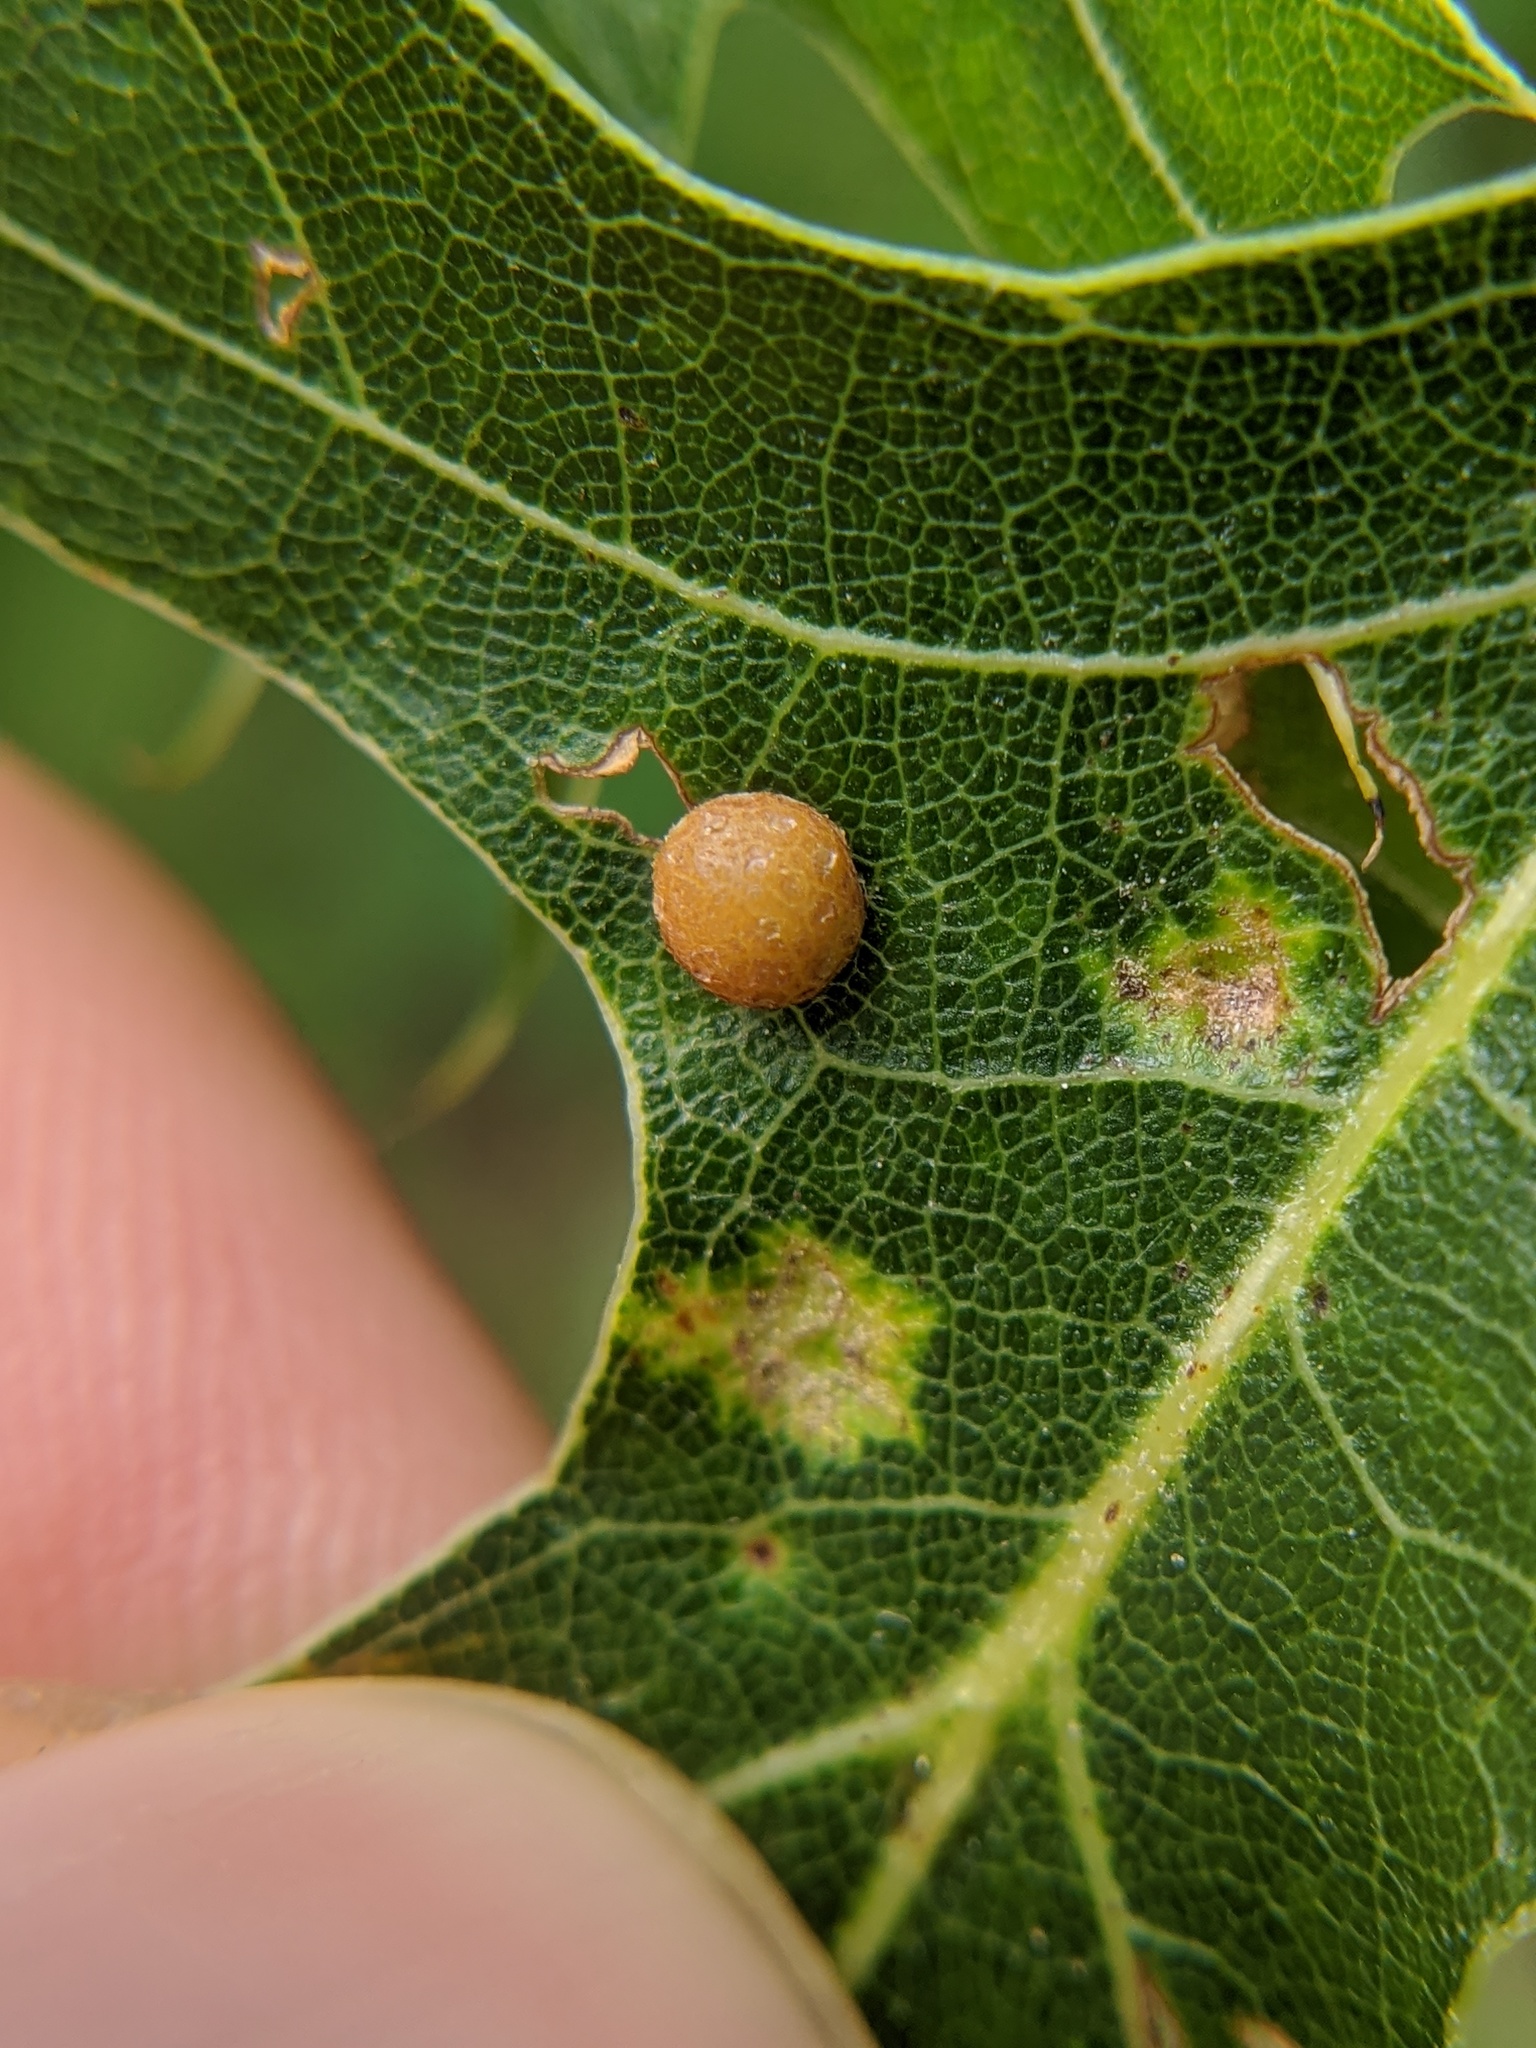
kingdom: Animalia
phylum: Arthropoda
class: Insecta
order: Diptera
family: Cecidomyiidae
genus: Polystepha
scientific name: Polystepha pilulae
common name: Oak leaf gall midge
